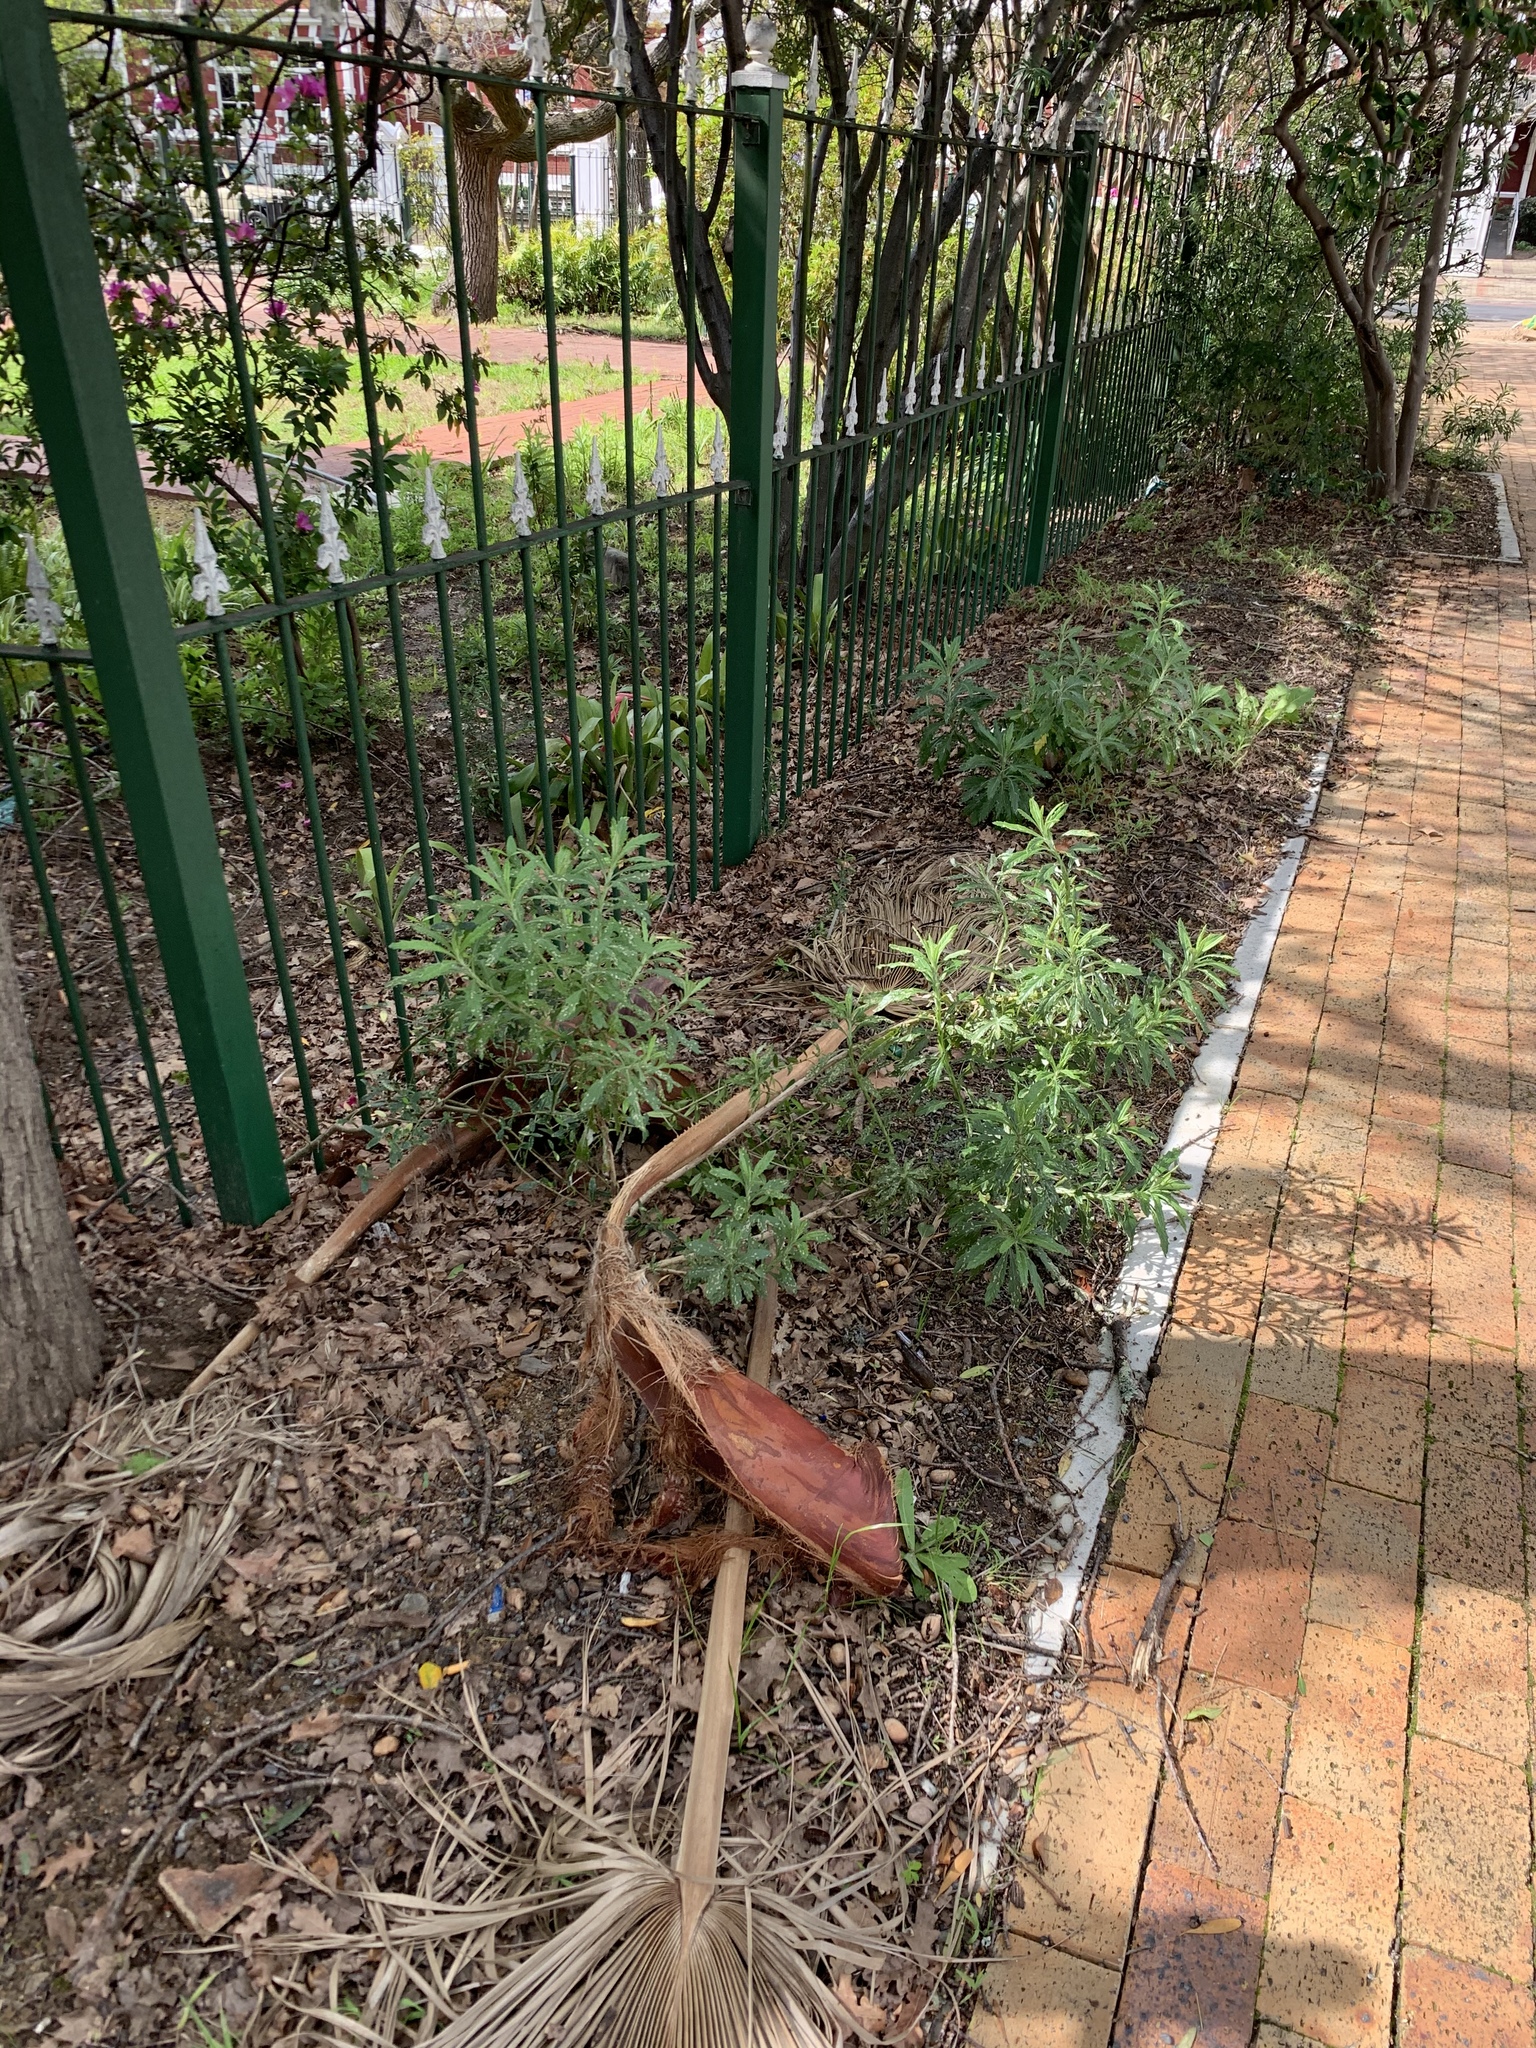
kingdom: Plantae
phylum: Tracheophyta
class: Magnoliopsida
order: Asterales
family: Asteraceae
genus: Senecio
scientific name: Senecio pterophorus
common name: Shoddy ragwort
